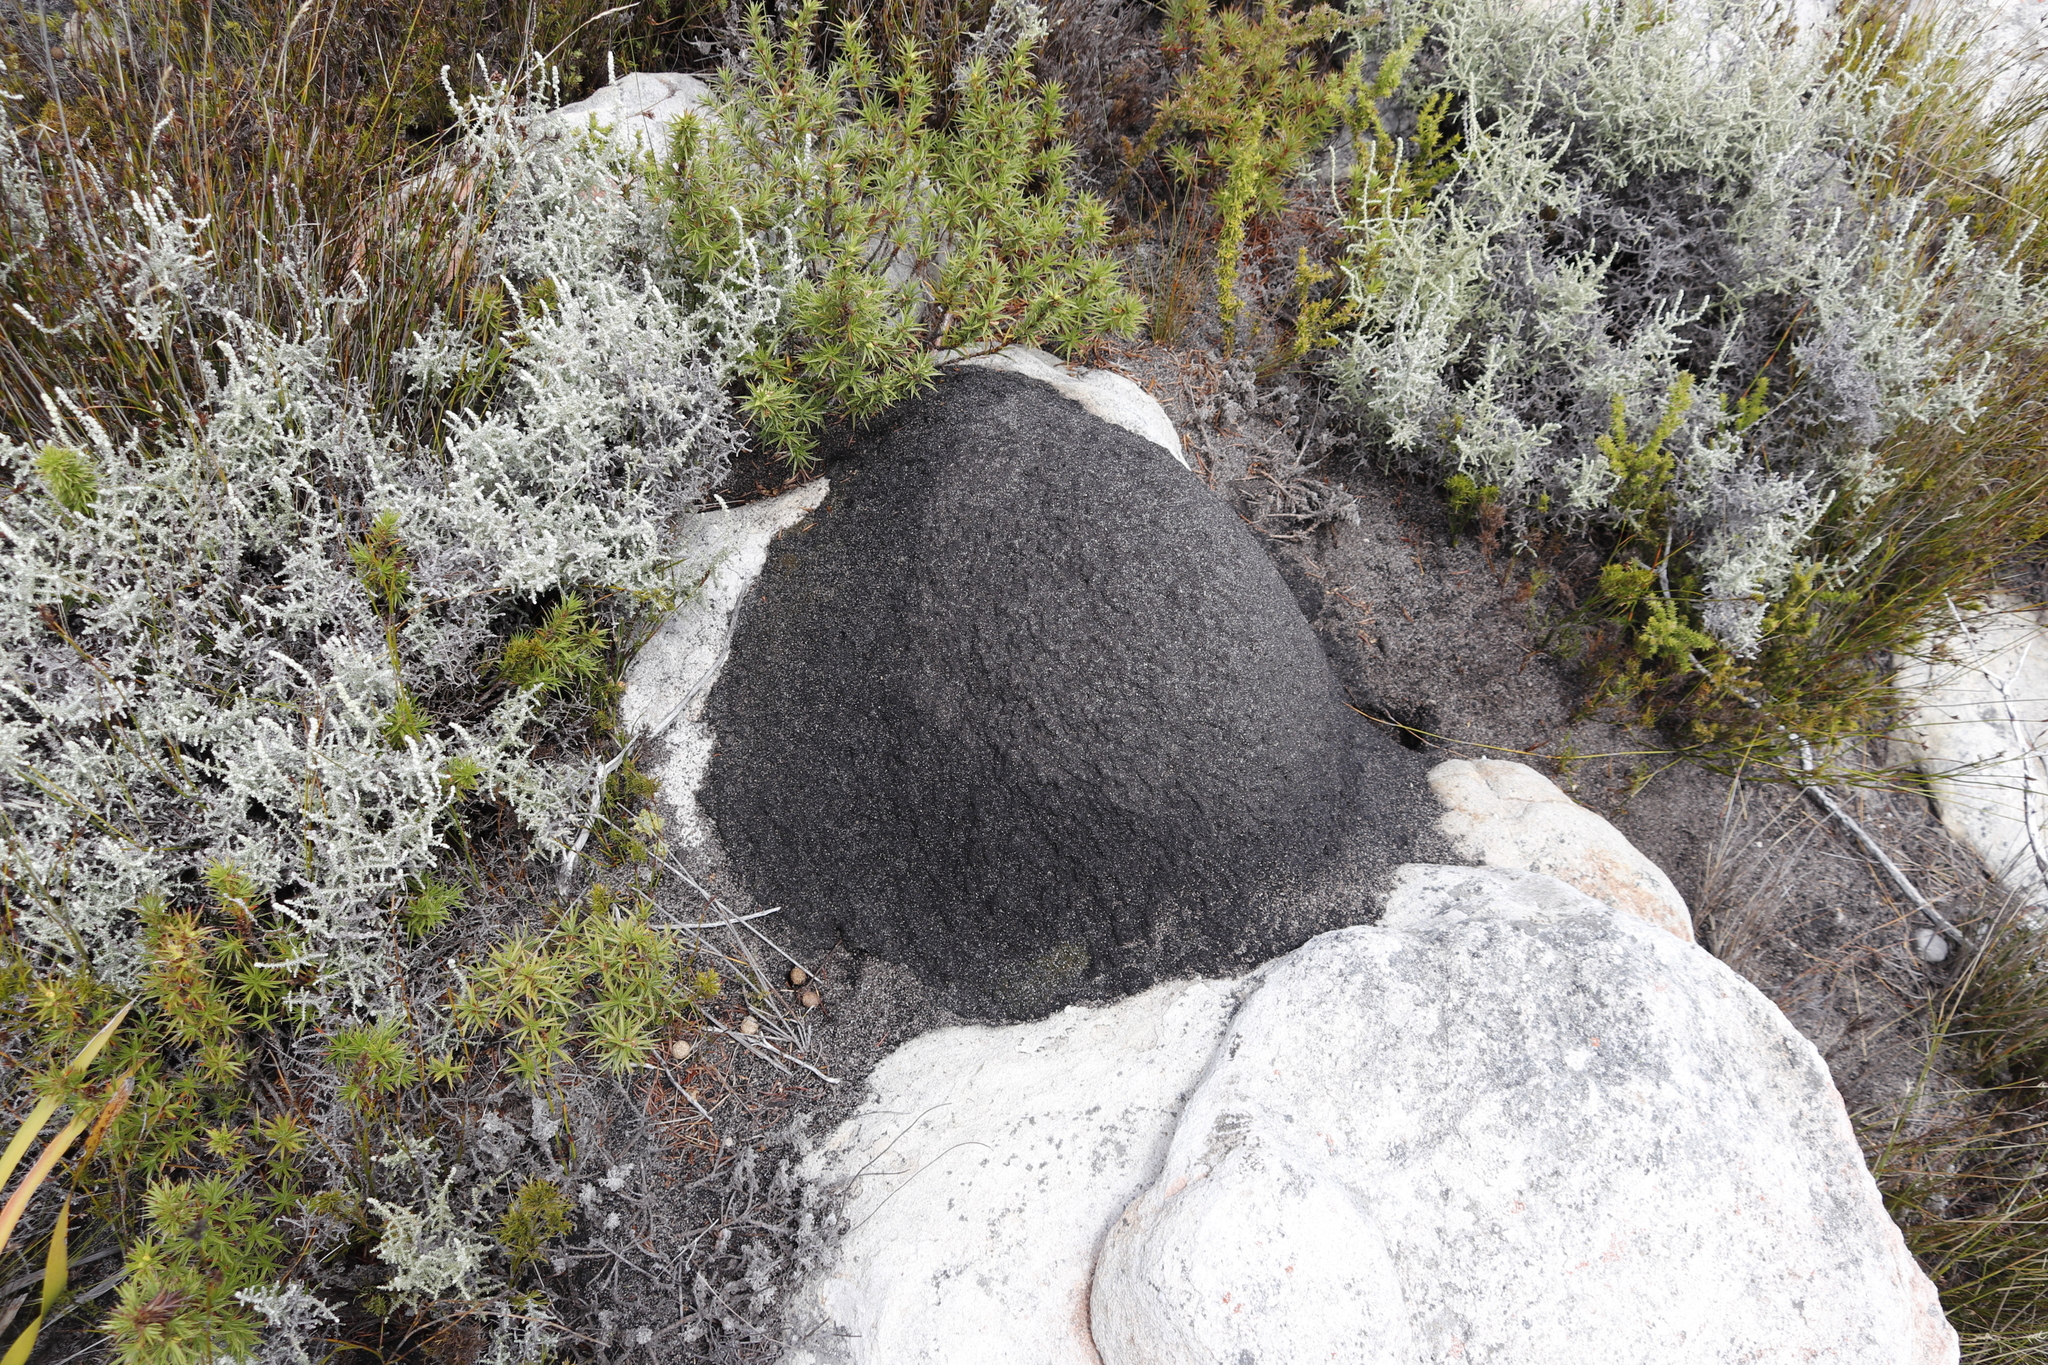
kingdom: Animalia
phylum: Arthropoda
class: Insecta
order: Blattodea
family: Termitidae
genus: Amitermes
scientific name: Amitermes hastatus
